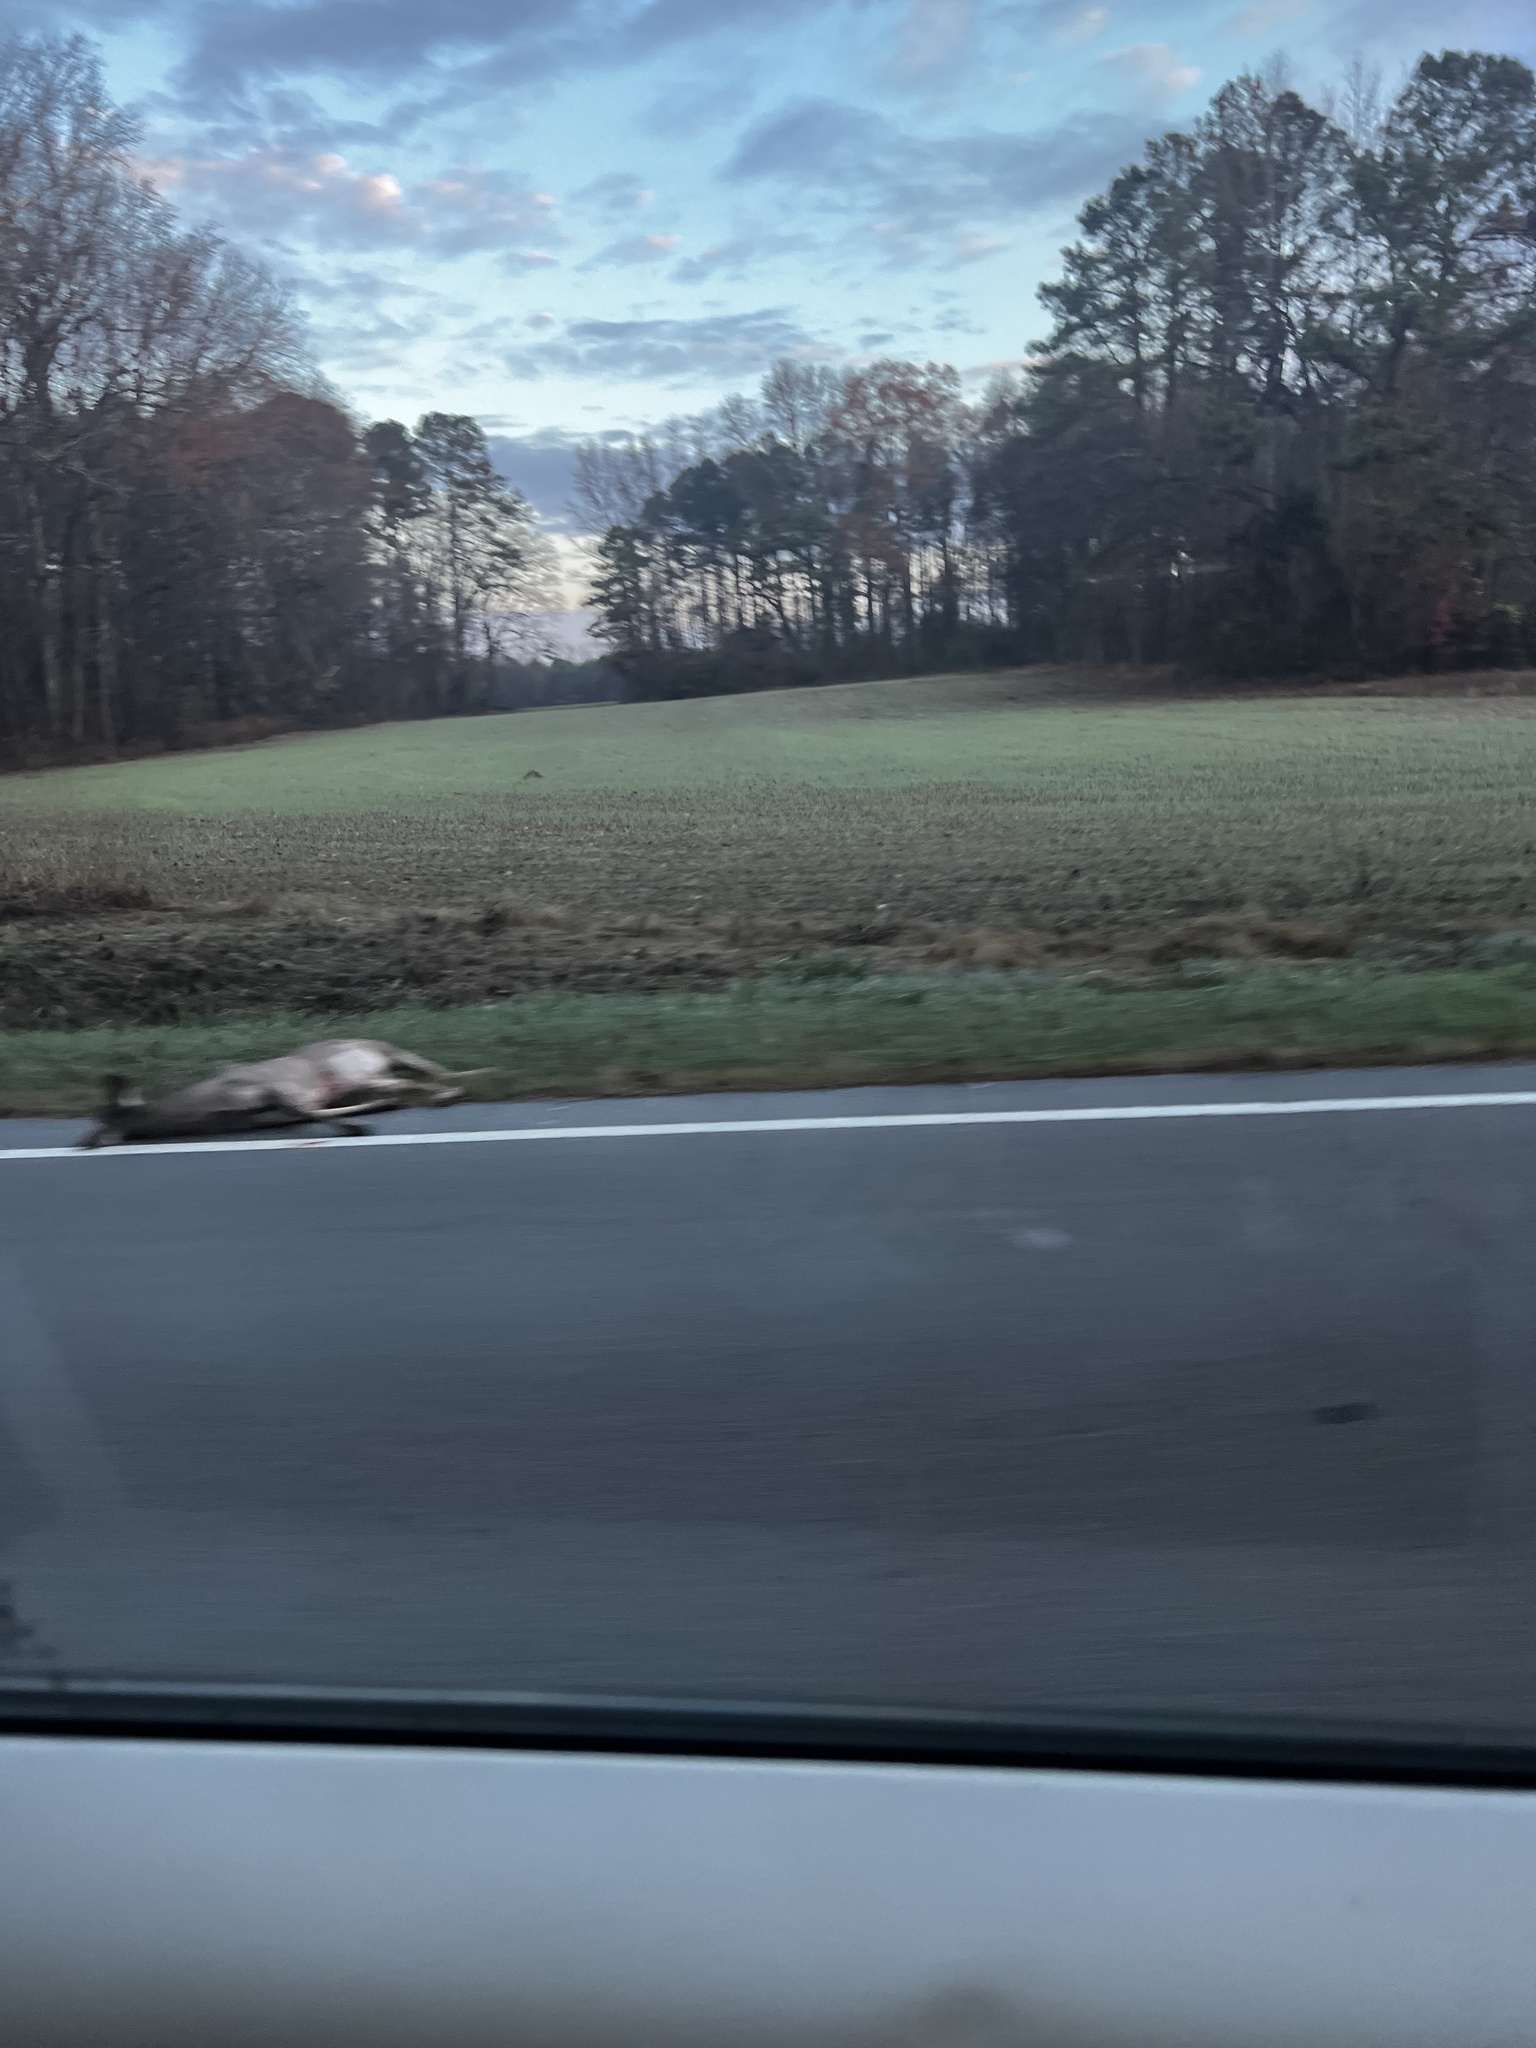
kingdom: Animalia
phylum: Chordata
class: Mammalia
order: Artiodactyla
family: Cervidae
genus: Odocoileus
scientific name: Odocoileus virginianus
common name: White-tailed deer
